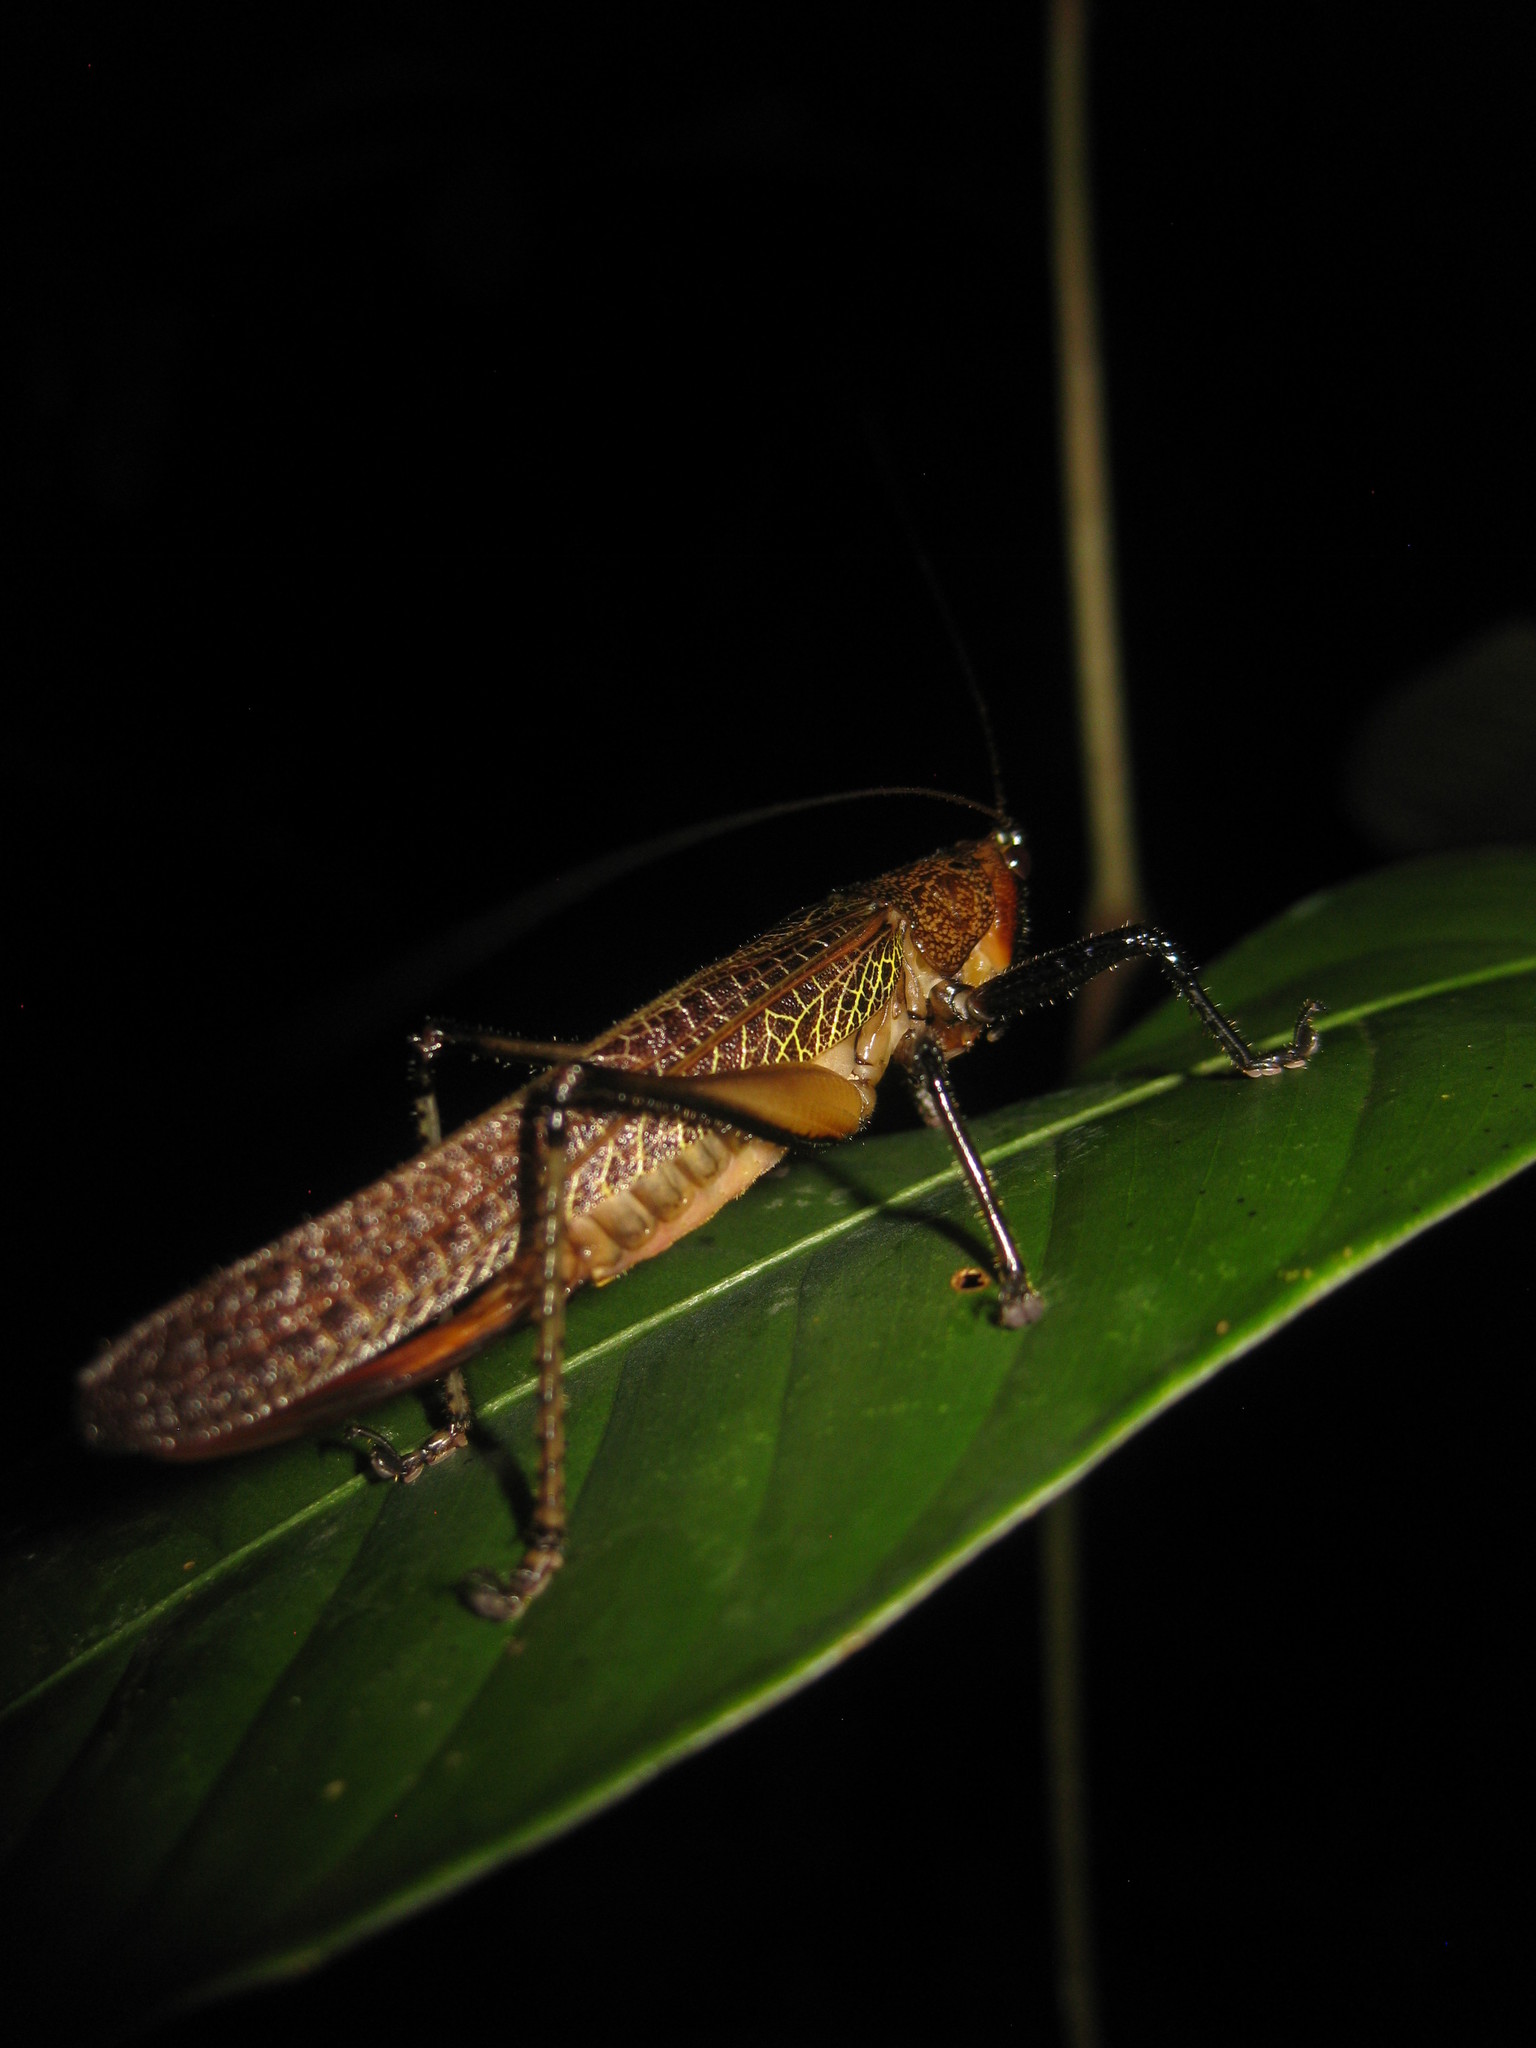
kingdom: Animalia
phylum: Arthropoda
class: Insecta
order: Orthoptera
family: Tettigoniidae
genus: Eschatoceras
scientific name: Eschatoceras punctifrons
